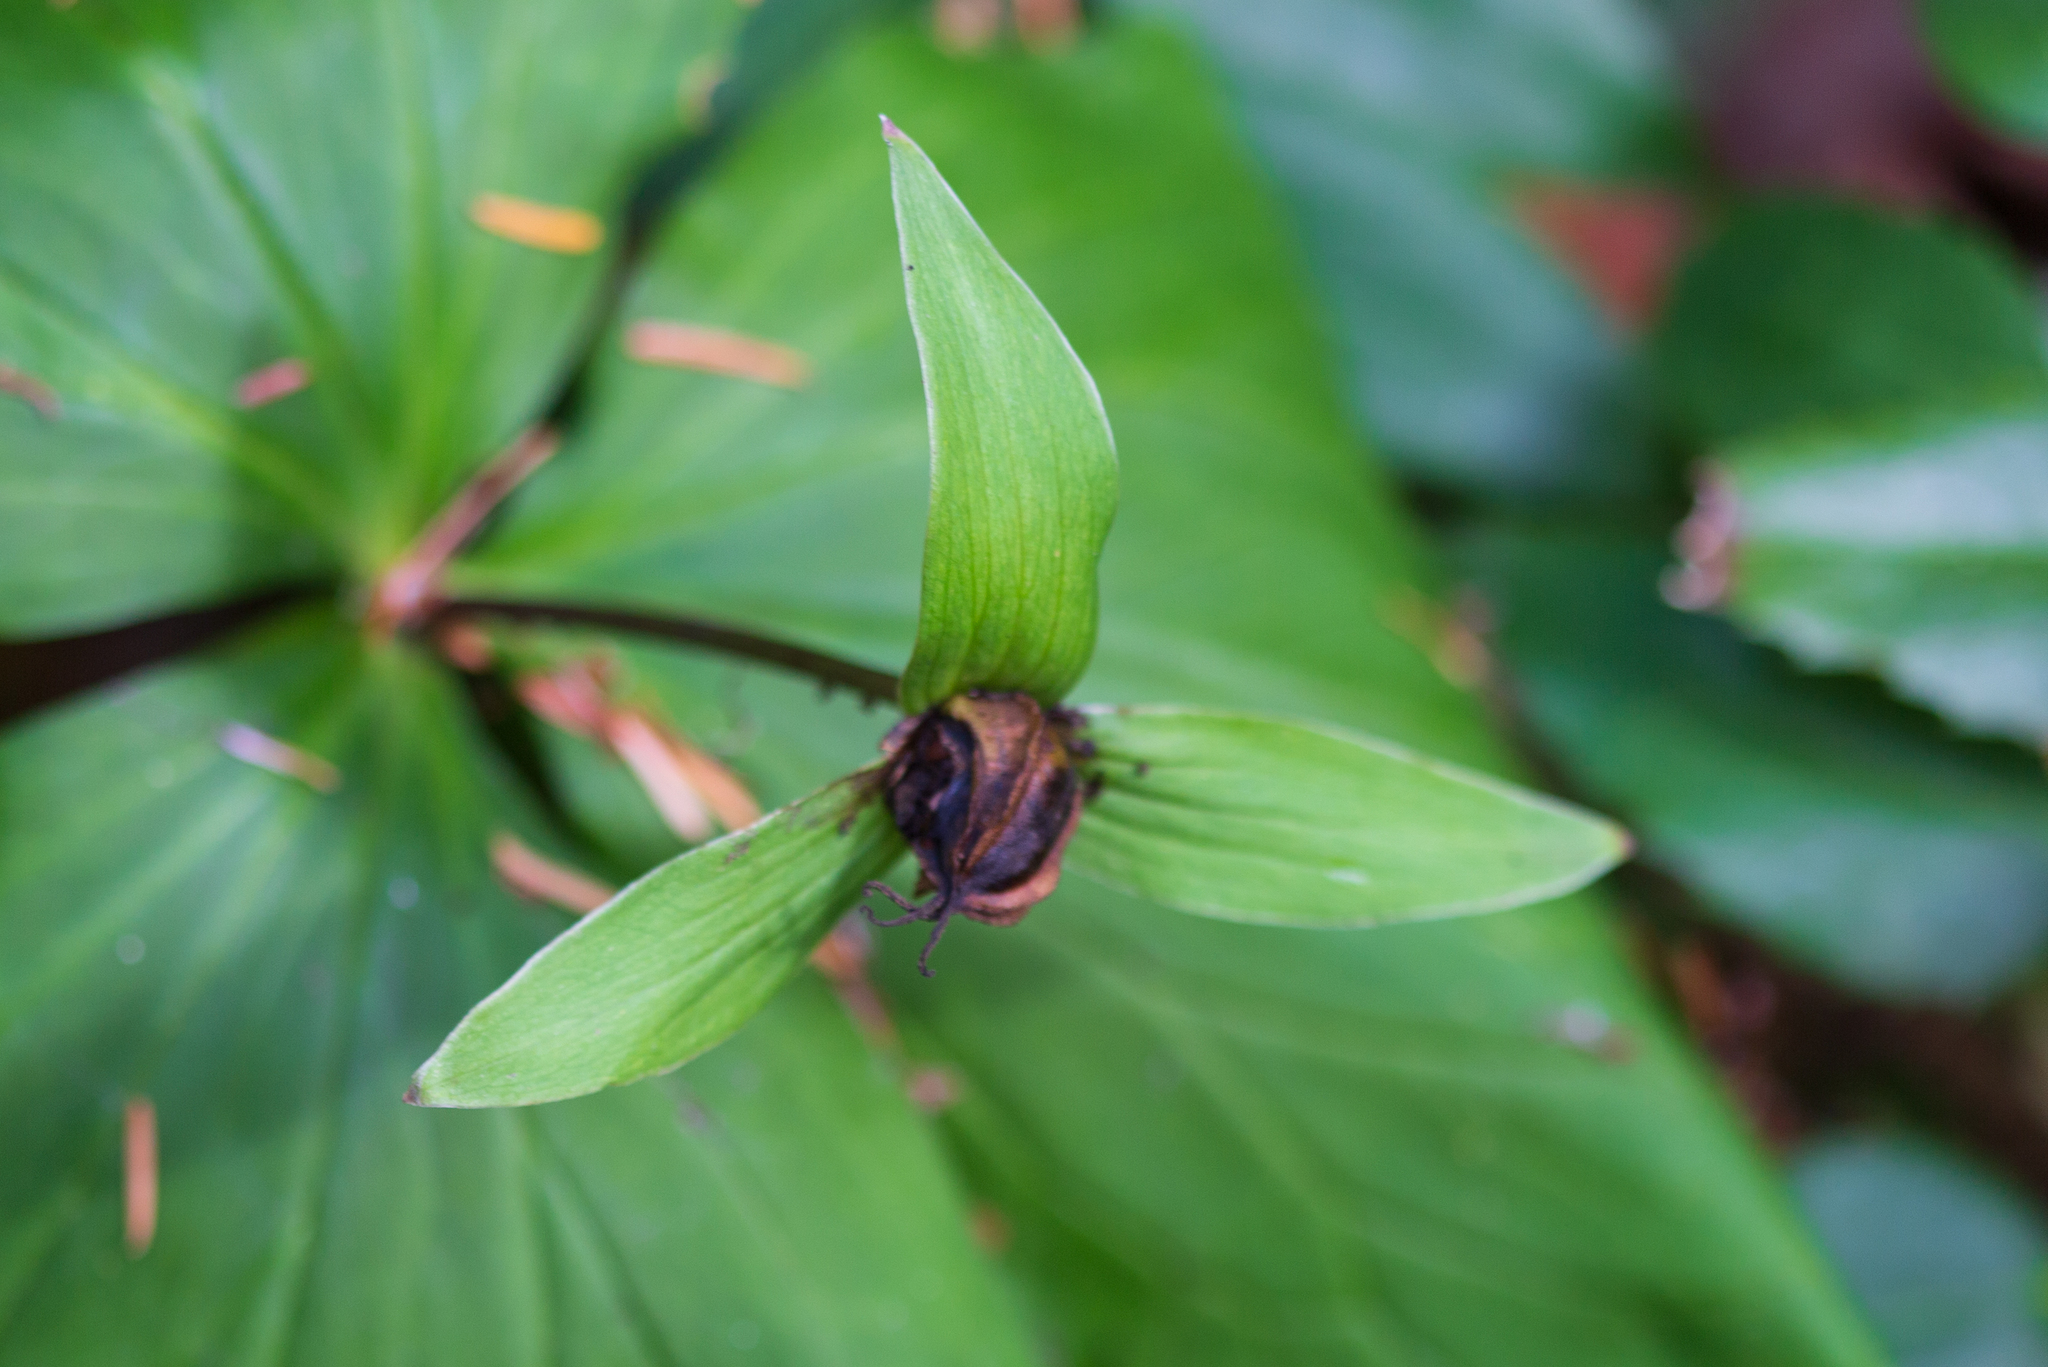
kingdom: Plantae
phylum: Tracheophyta
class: Liliopsida
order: Liliales
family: Melanthiaceae
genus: Trillium
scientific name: Trillium ovatum
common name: Pacific trillium
